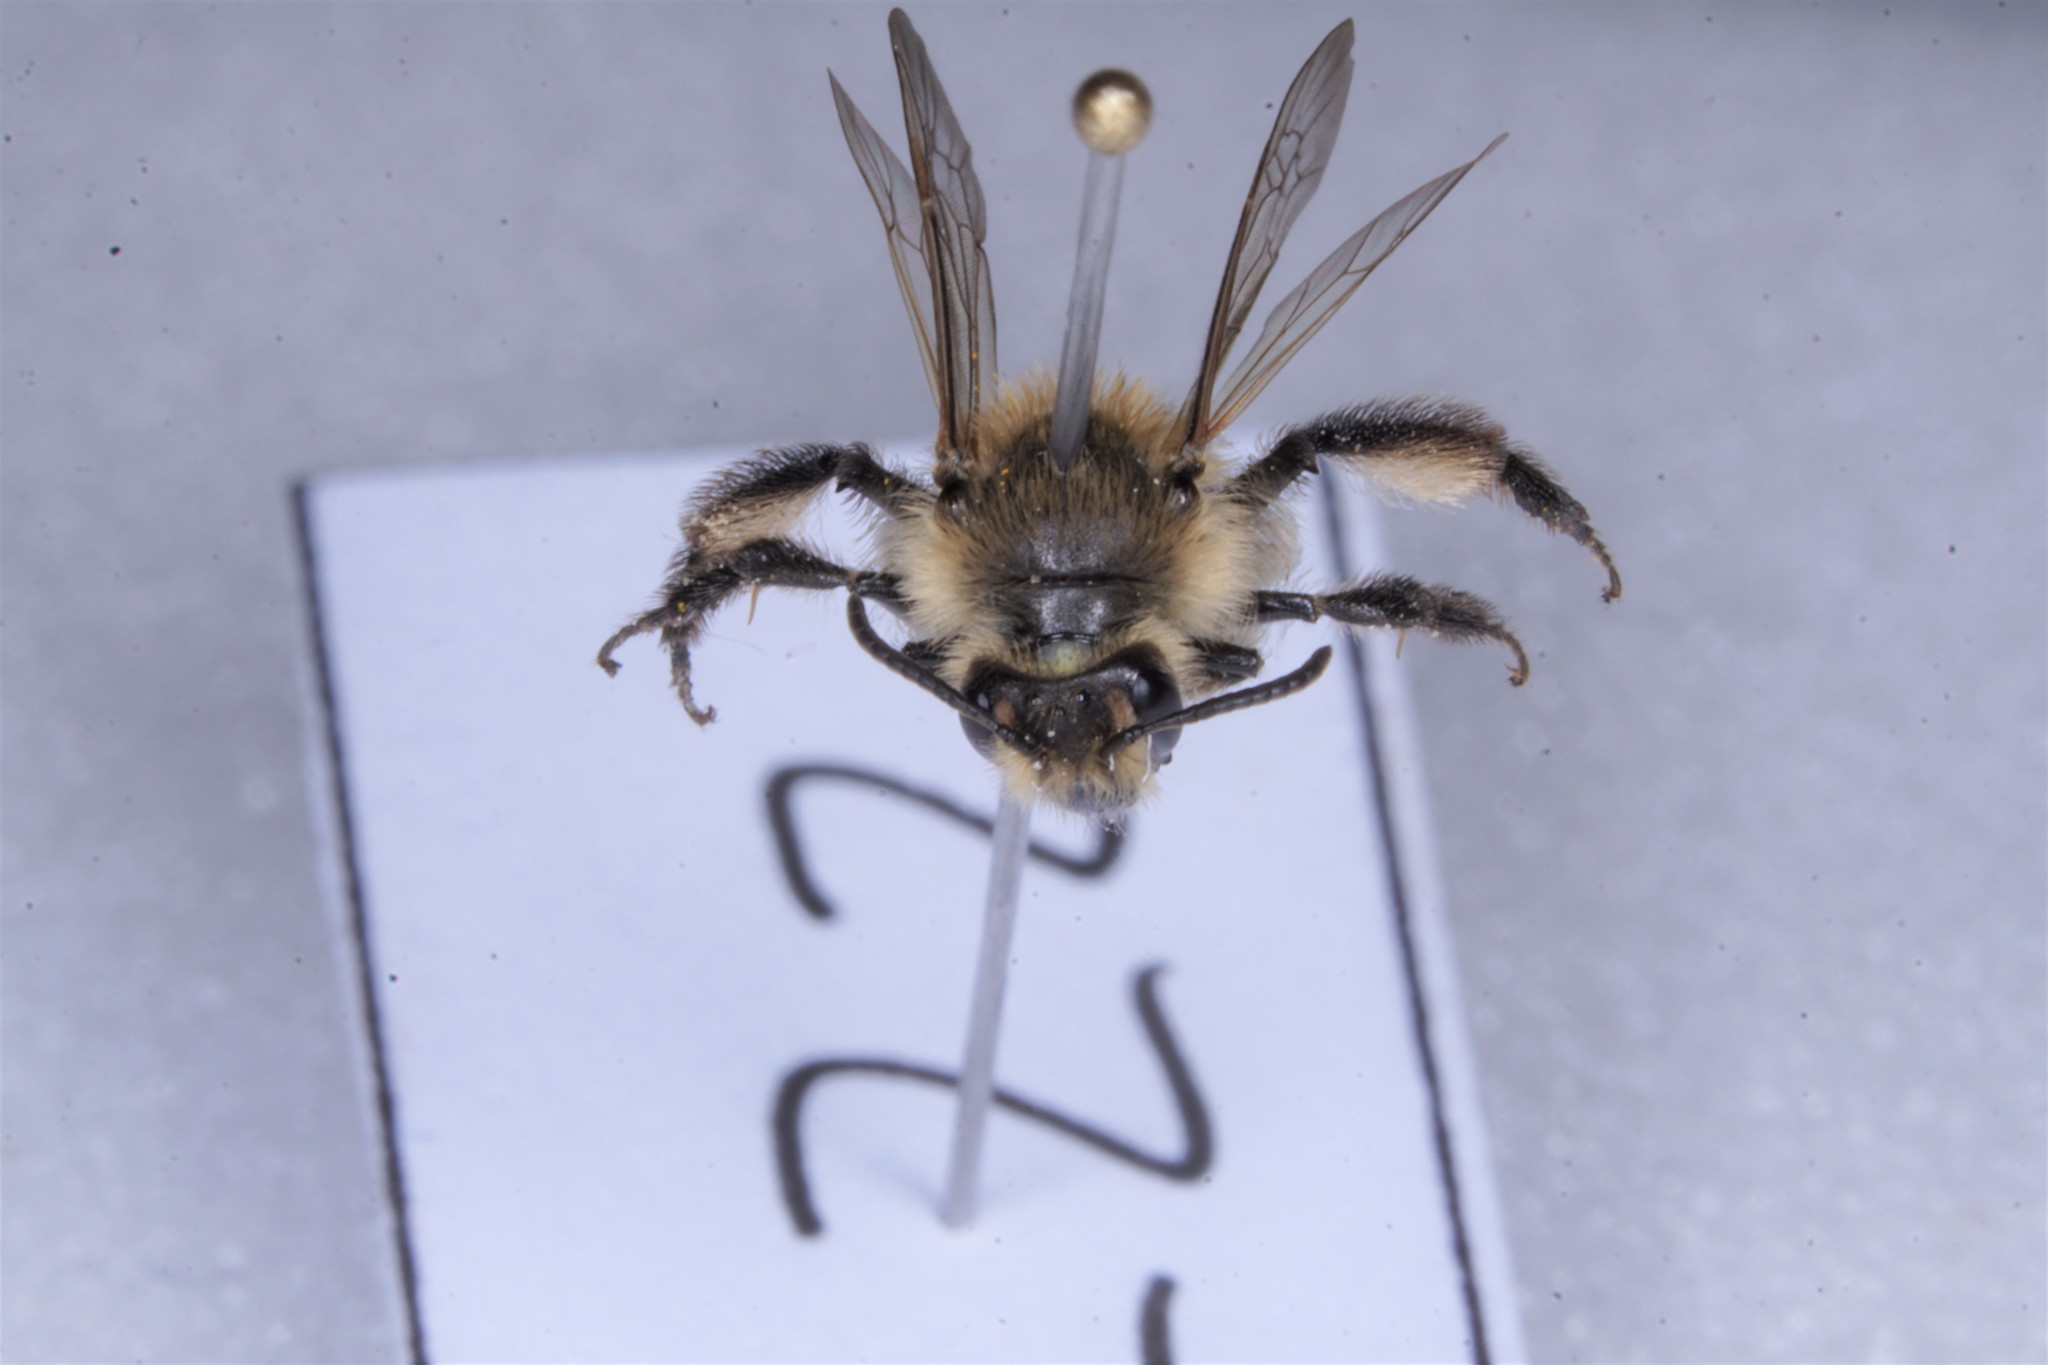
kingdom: Animalia
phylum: Arthropoda
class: Insecta
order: Hymenoptera
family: Andrenidae
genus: Andrena
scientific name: Andrena bradleyi
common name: Bradley's mining bee
